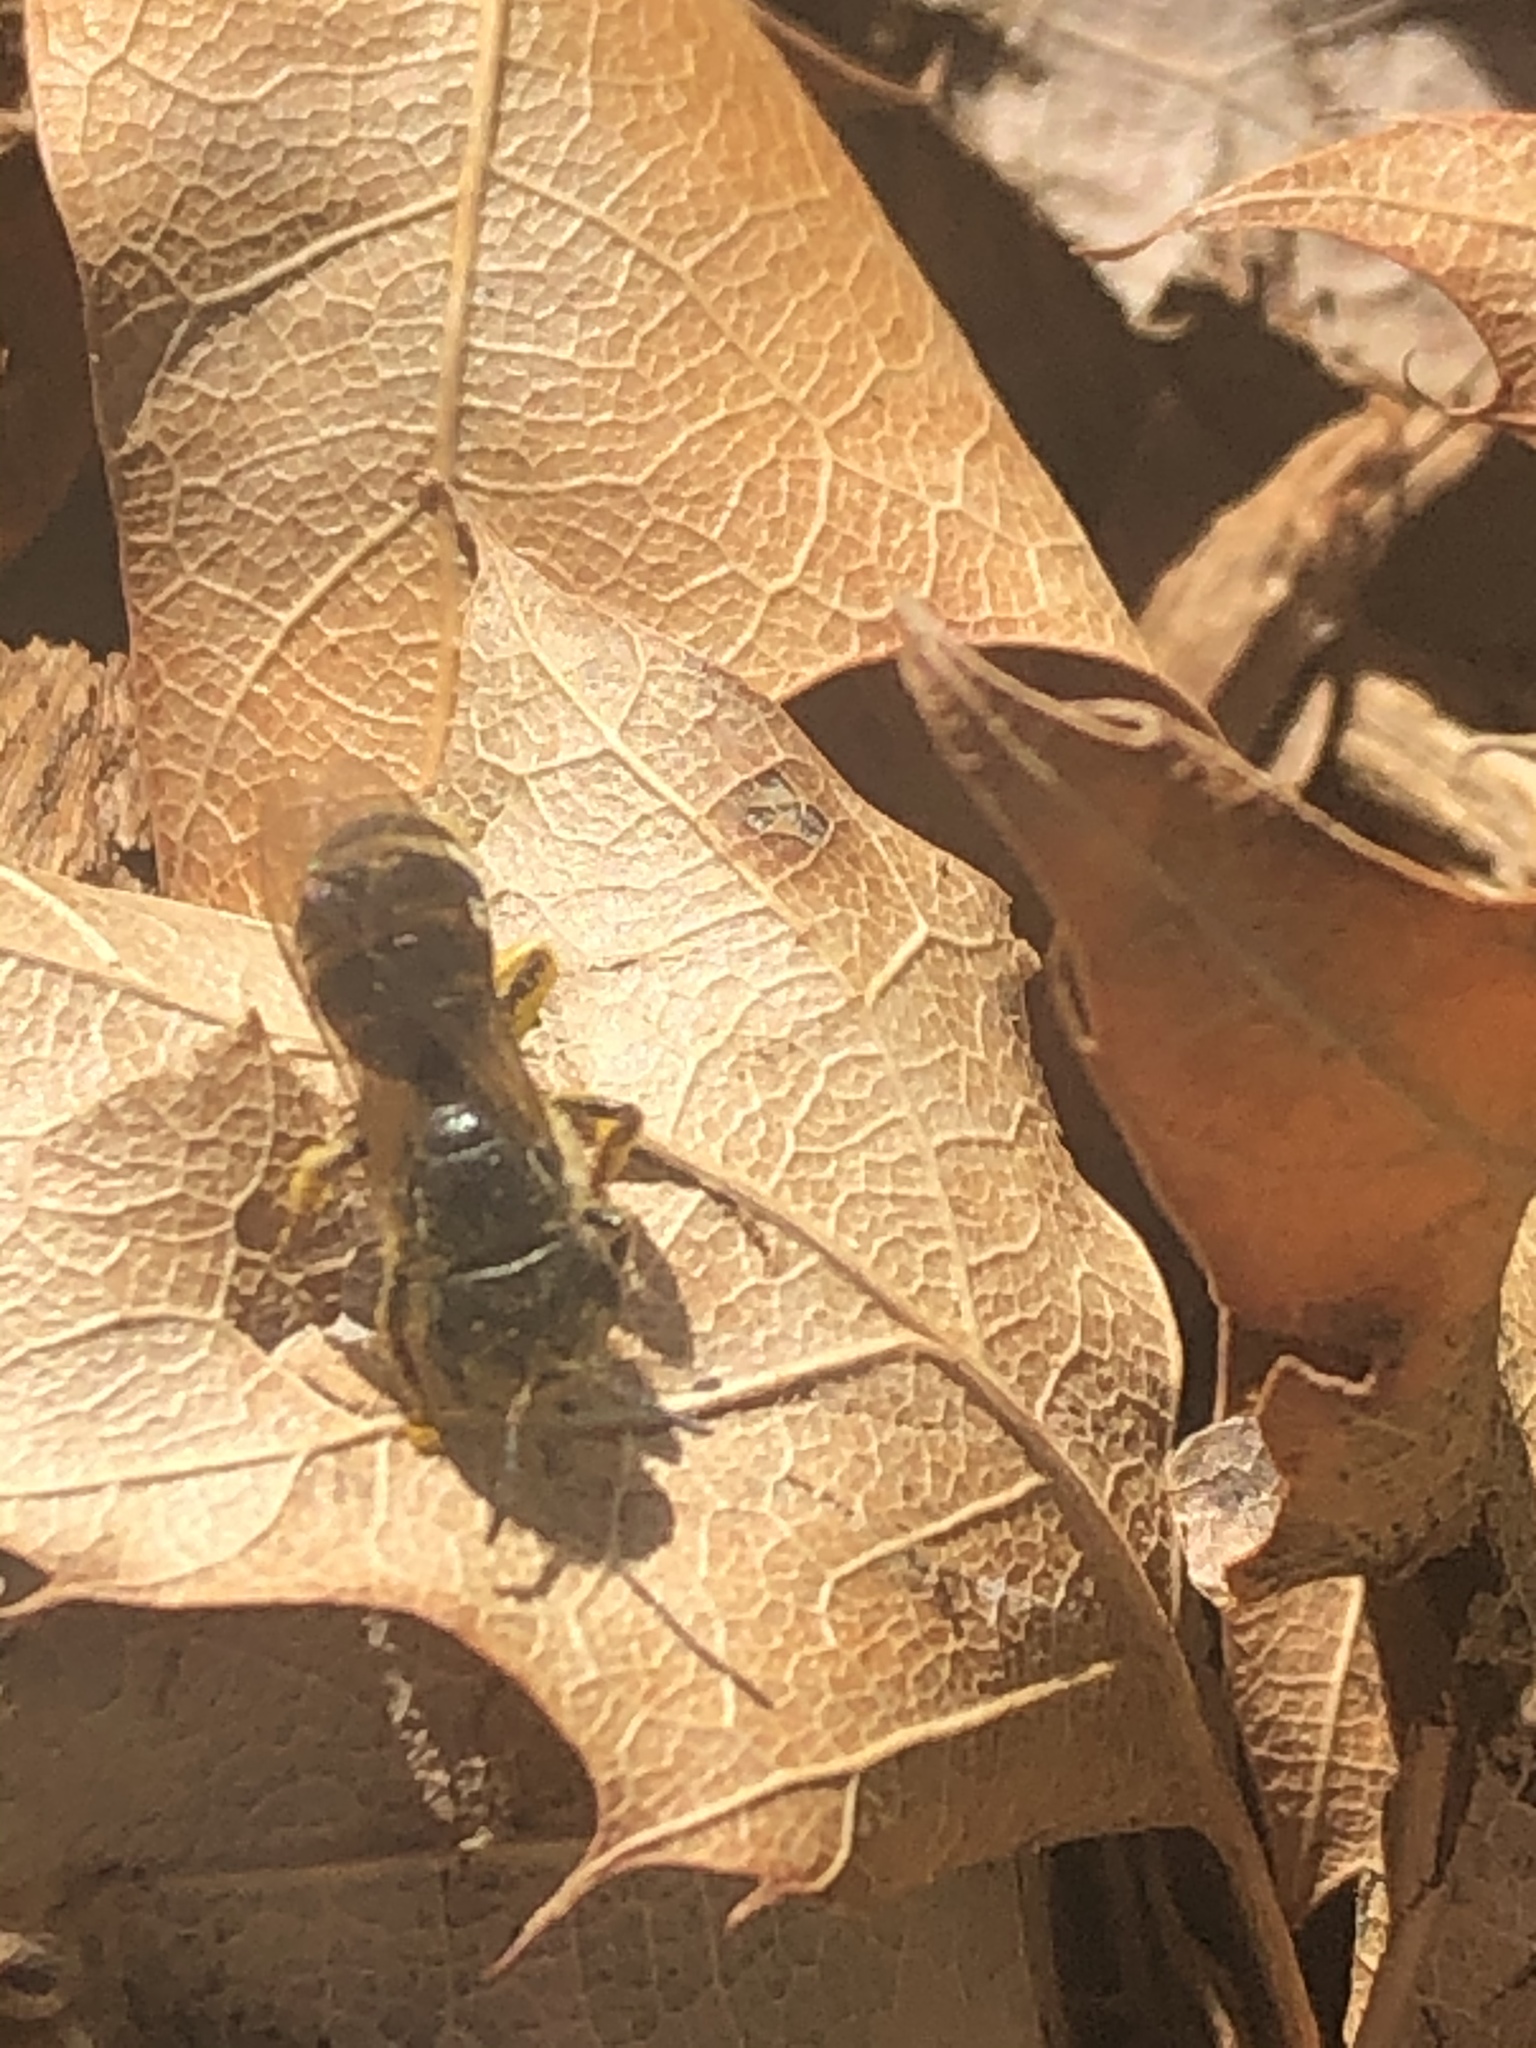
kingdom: Animalia
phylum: Arthropoda
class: Insecta
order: Hymenoptera
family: Halictidae
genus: Halictus
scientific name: Halictus ligatus
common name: Ligated furrow bee
